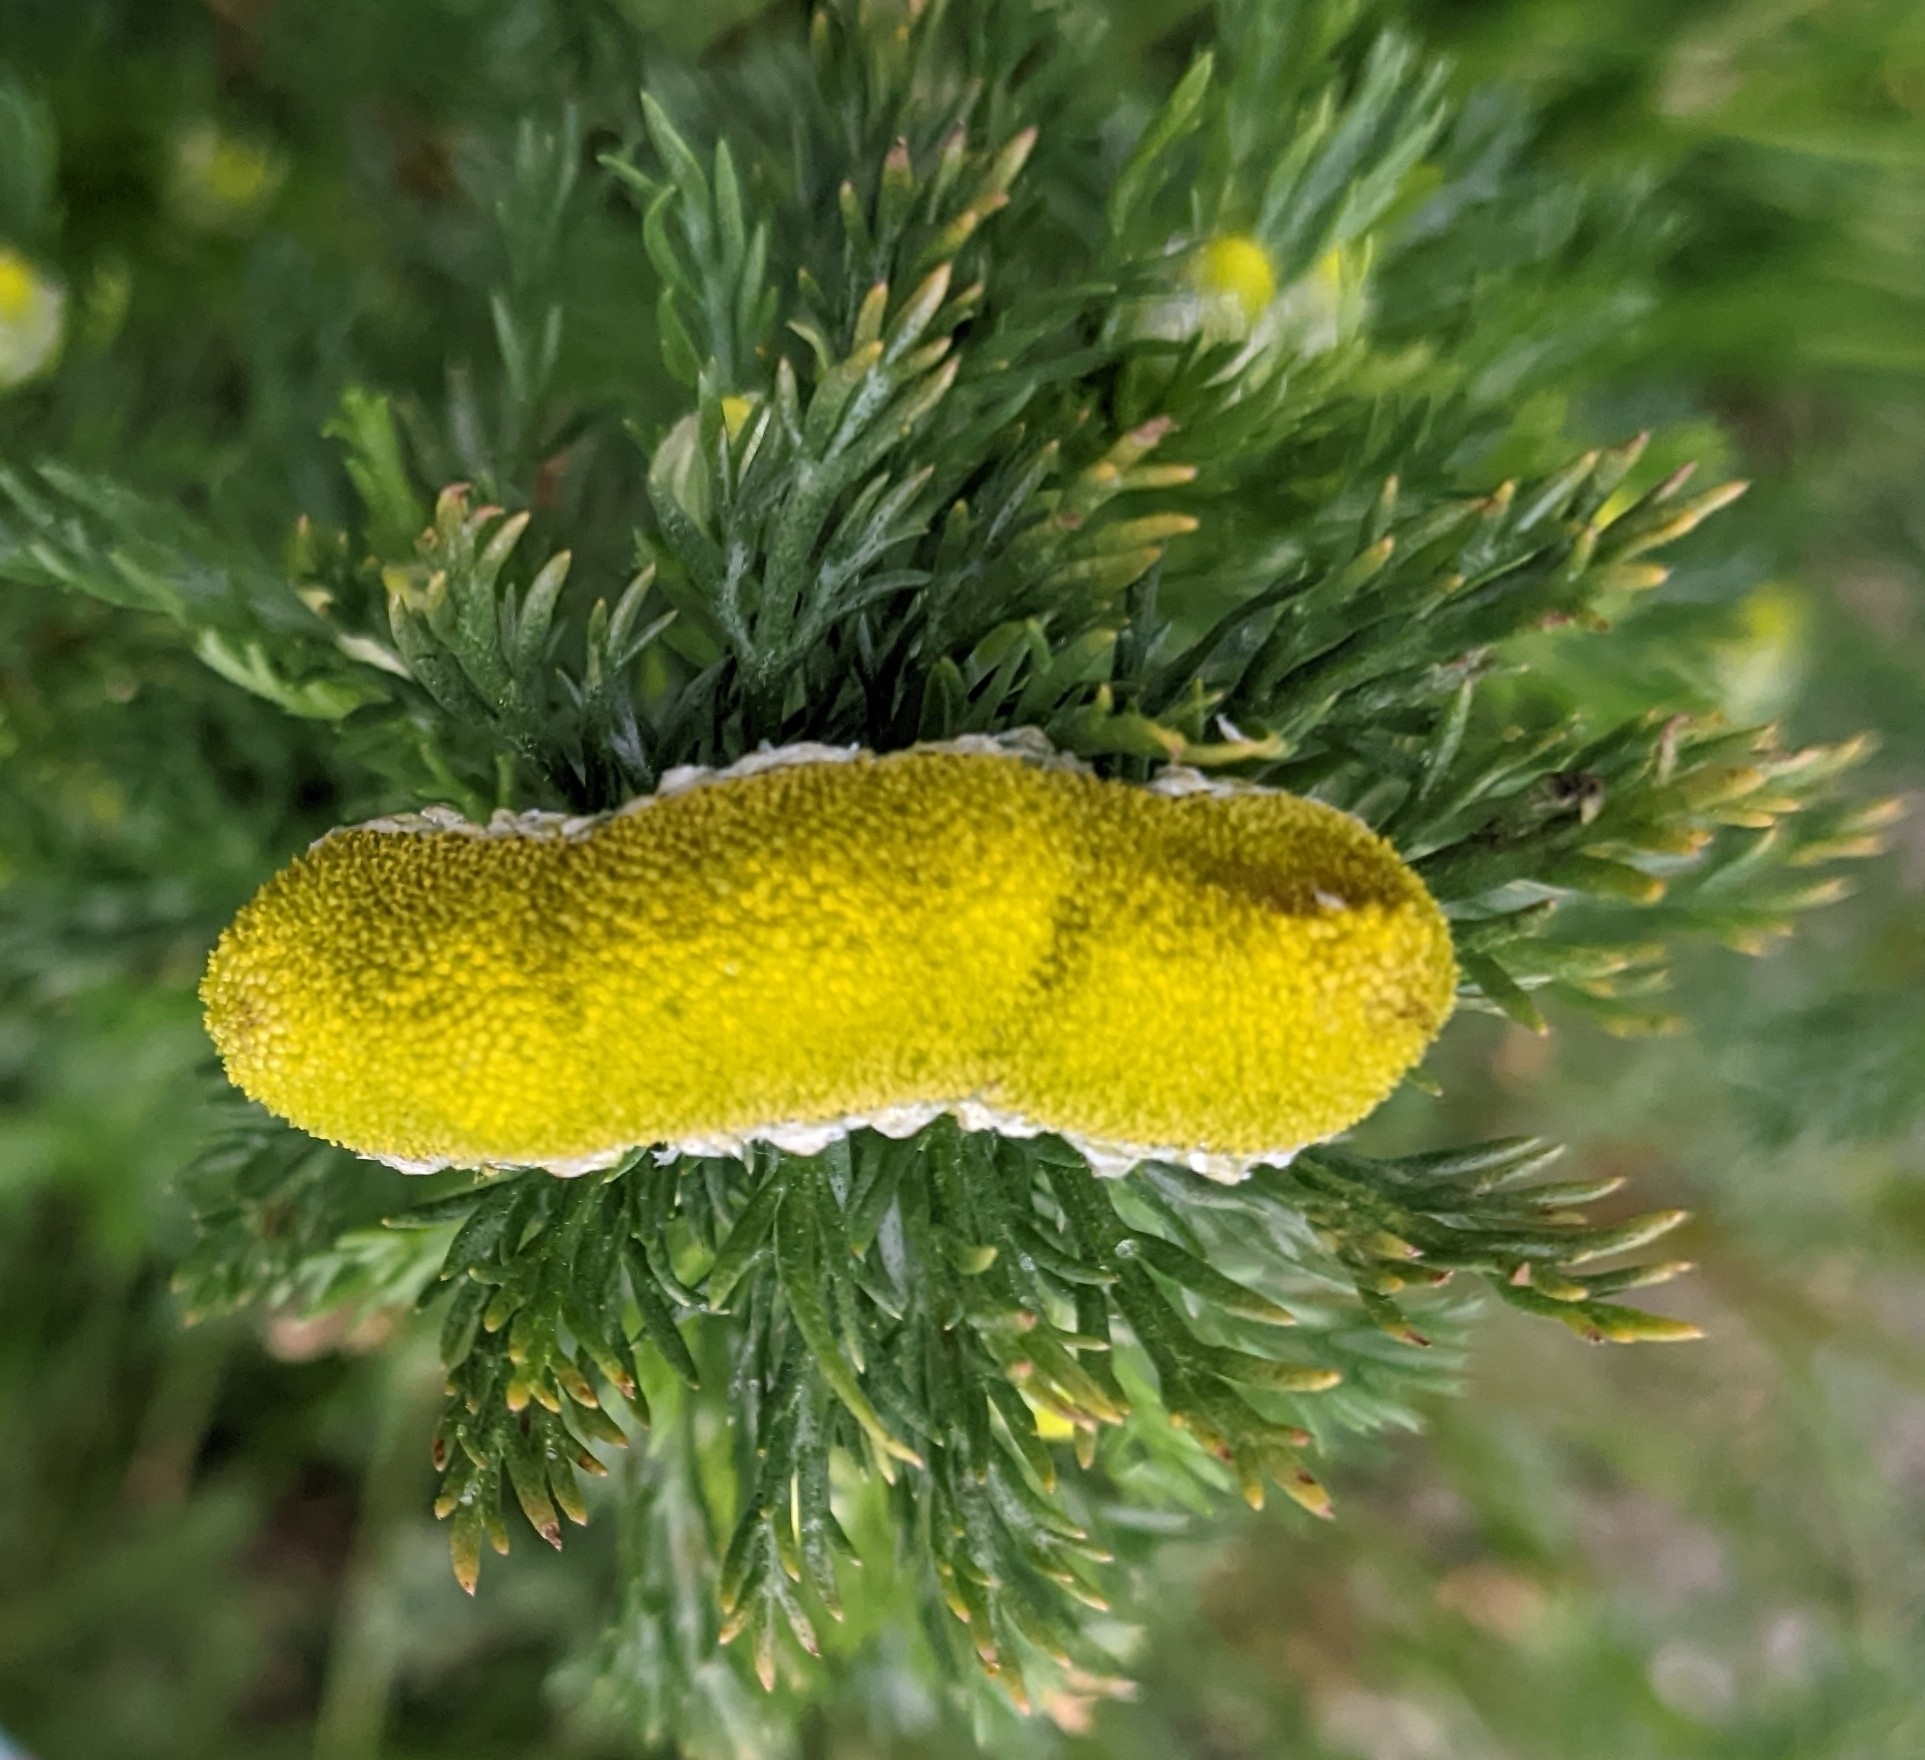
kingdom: Plantae
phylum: Tracheophyta
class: Magnoliopsida
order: Asterales
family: Asteraceae
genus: Matricaria
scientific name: Matricaria discoidea
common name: Disc mayweed
